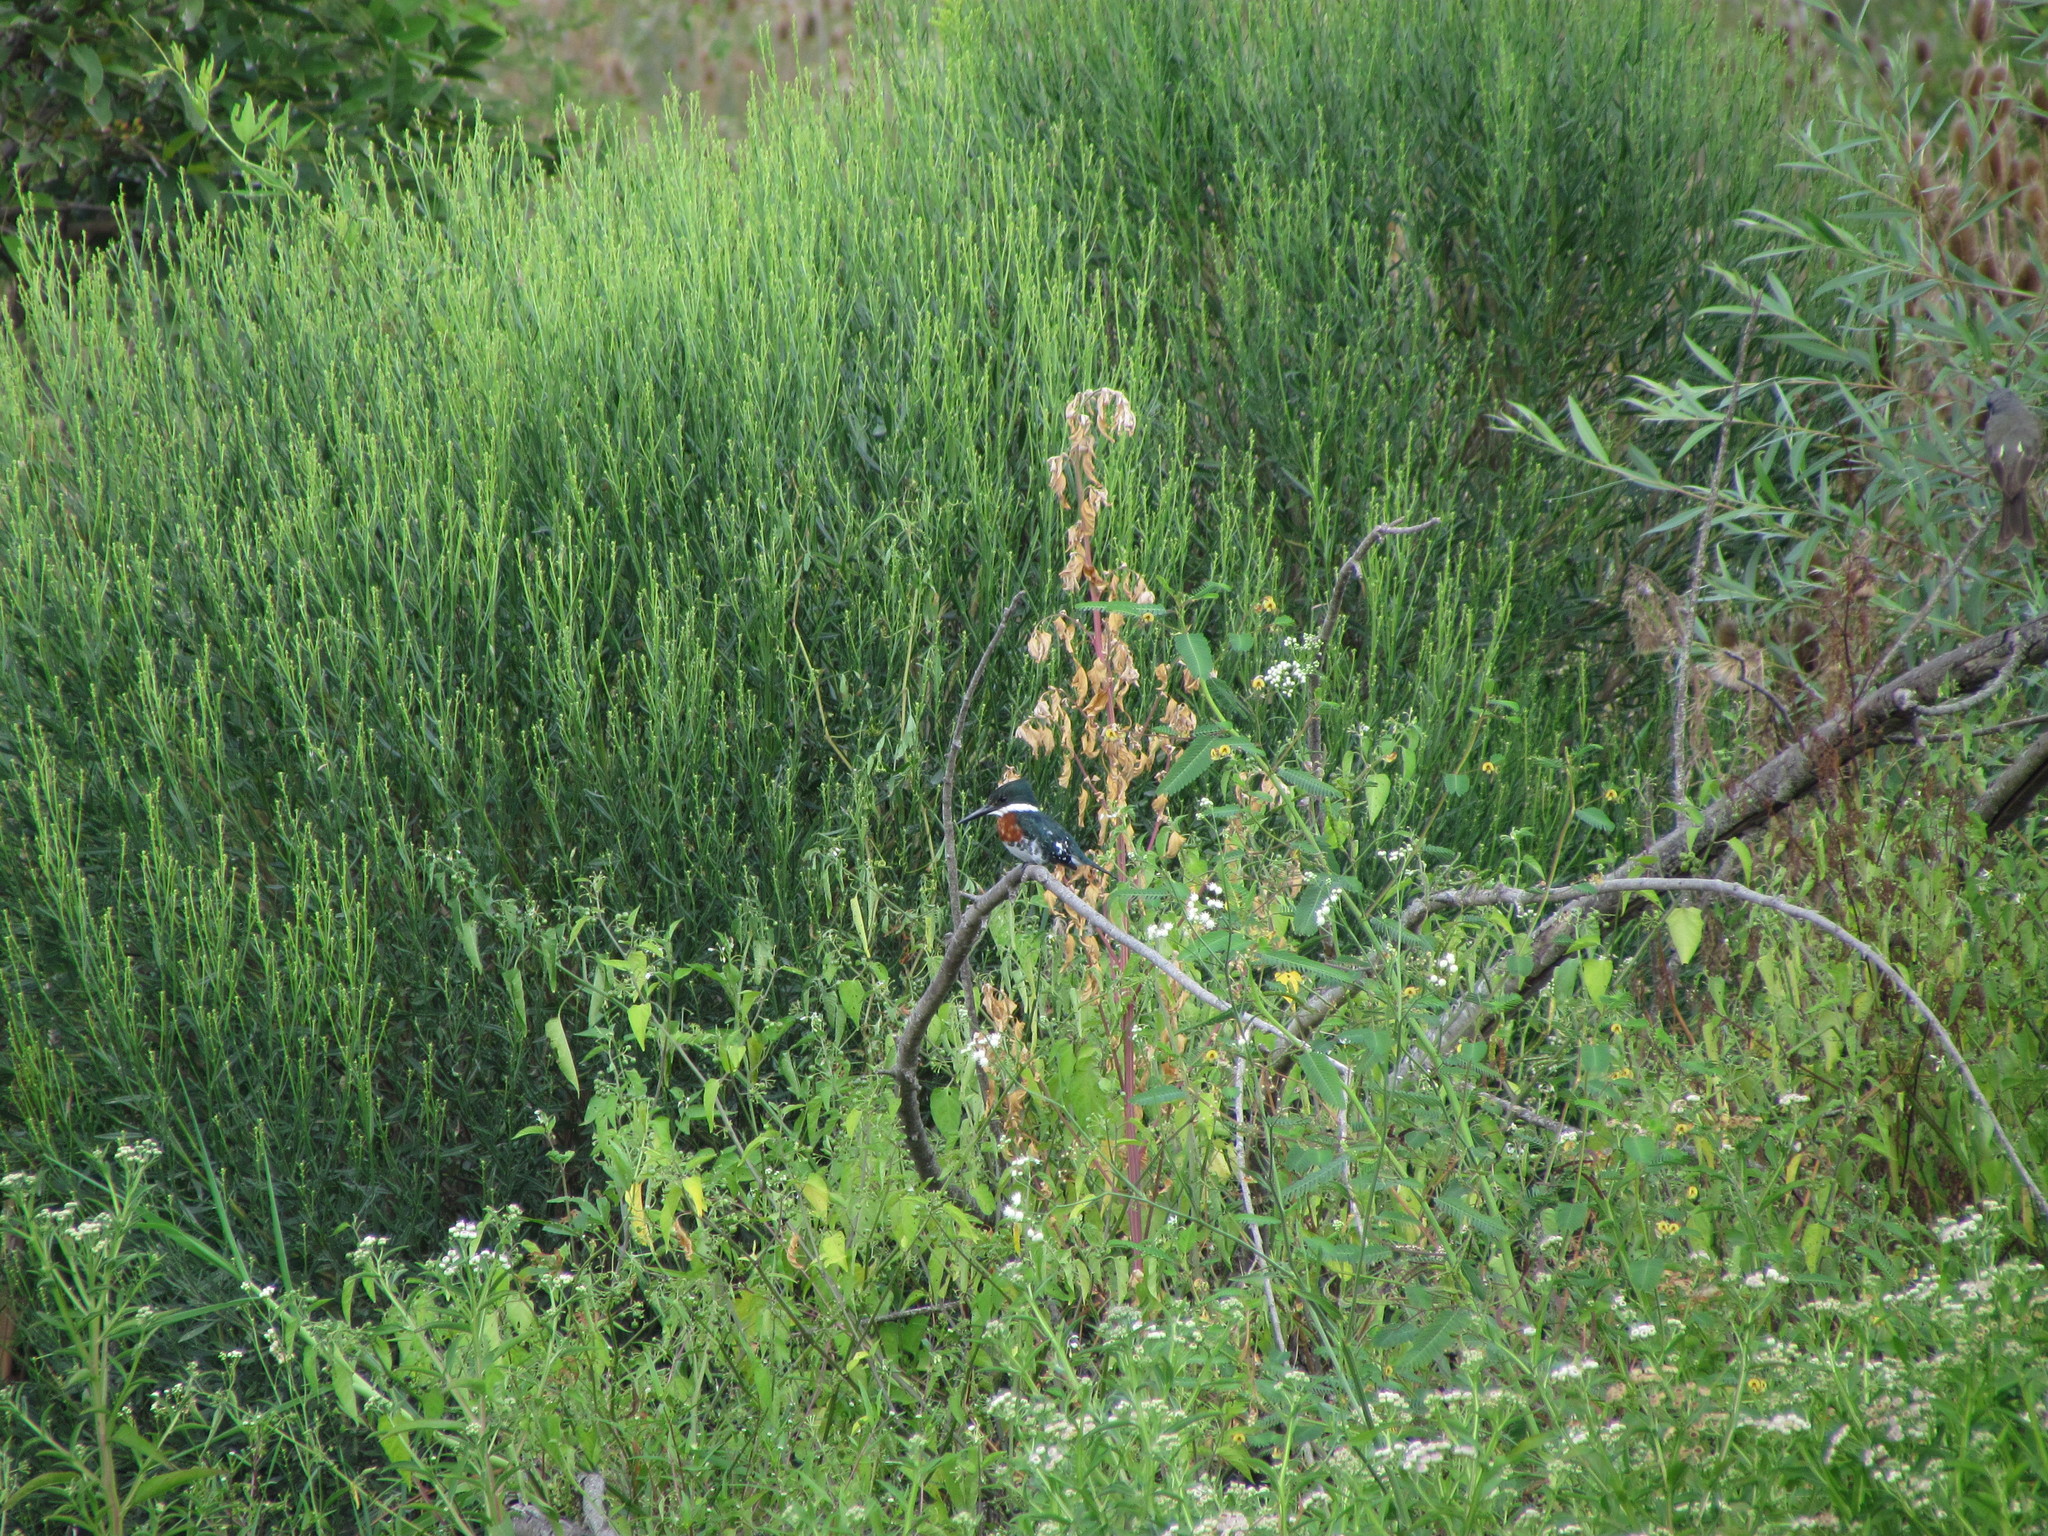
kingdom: Animalia
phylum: Chordata
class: Aves
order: Coraciiformes
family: Alcedinidae
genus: Chloroceryle
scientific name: Chloroceryle americana
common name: Green kingfisher
